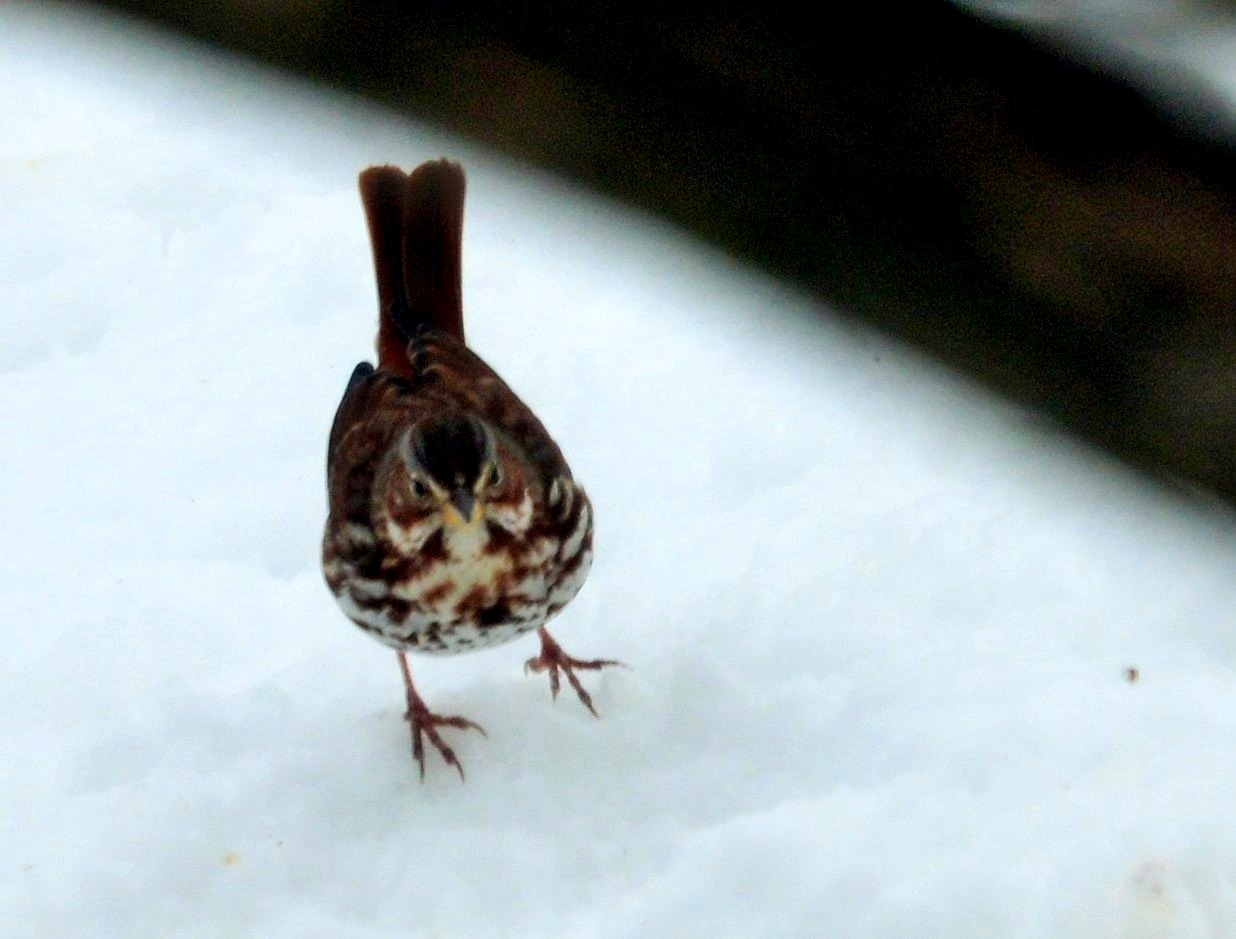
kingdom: Animalia
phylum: Chordata
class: Aves
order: Passeriformes
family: Passerellidae
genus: Passerella
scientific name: Passerella iliaca
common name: Fox sparrow
